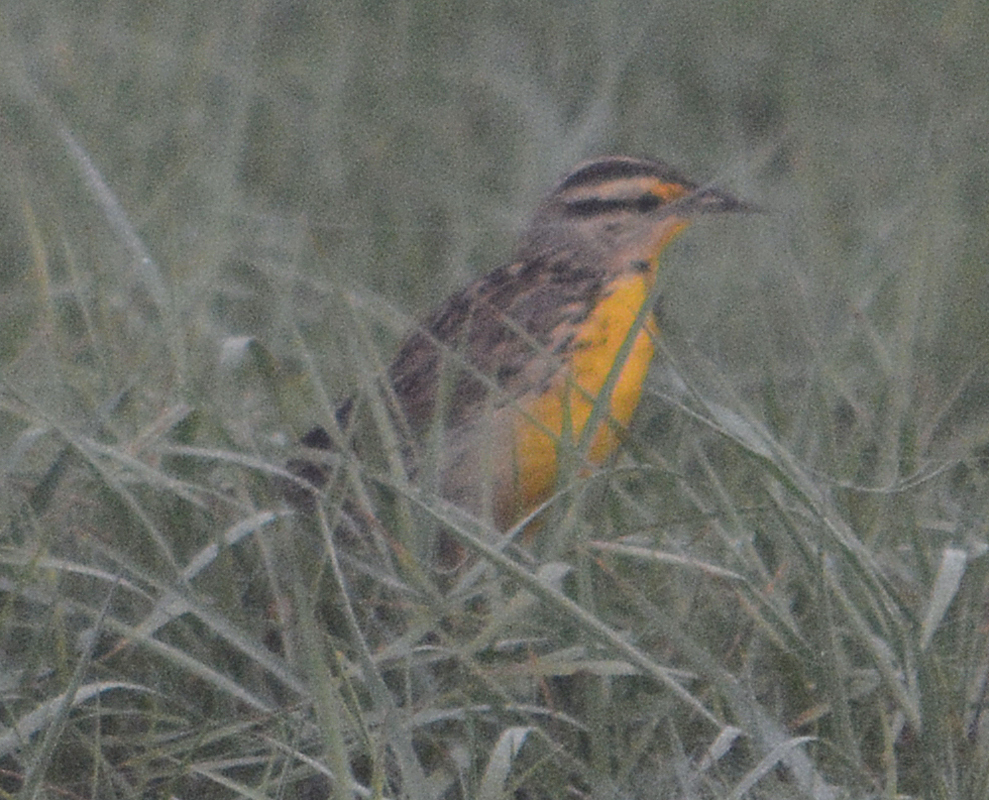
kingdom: Animalia
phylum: Chordata
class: Aves
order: Passeriformes
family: Icteridae
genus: Sturnella
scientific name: Sturnella magna
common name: Eastern meadowlark
